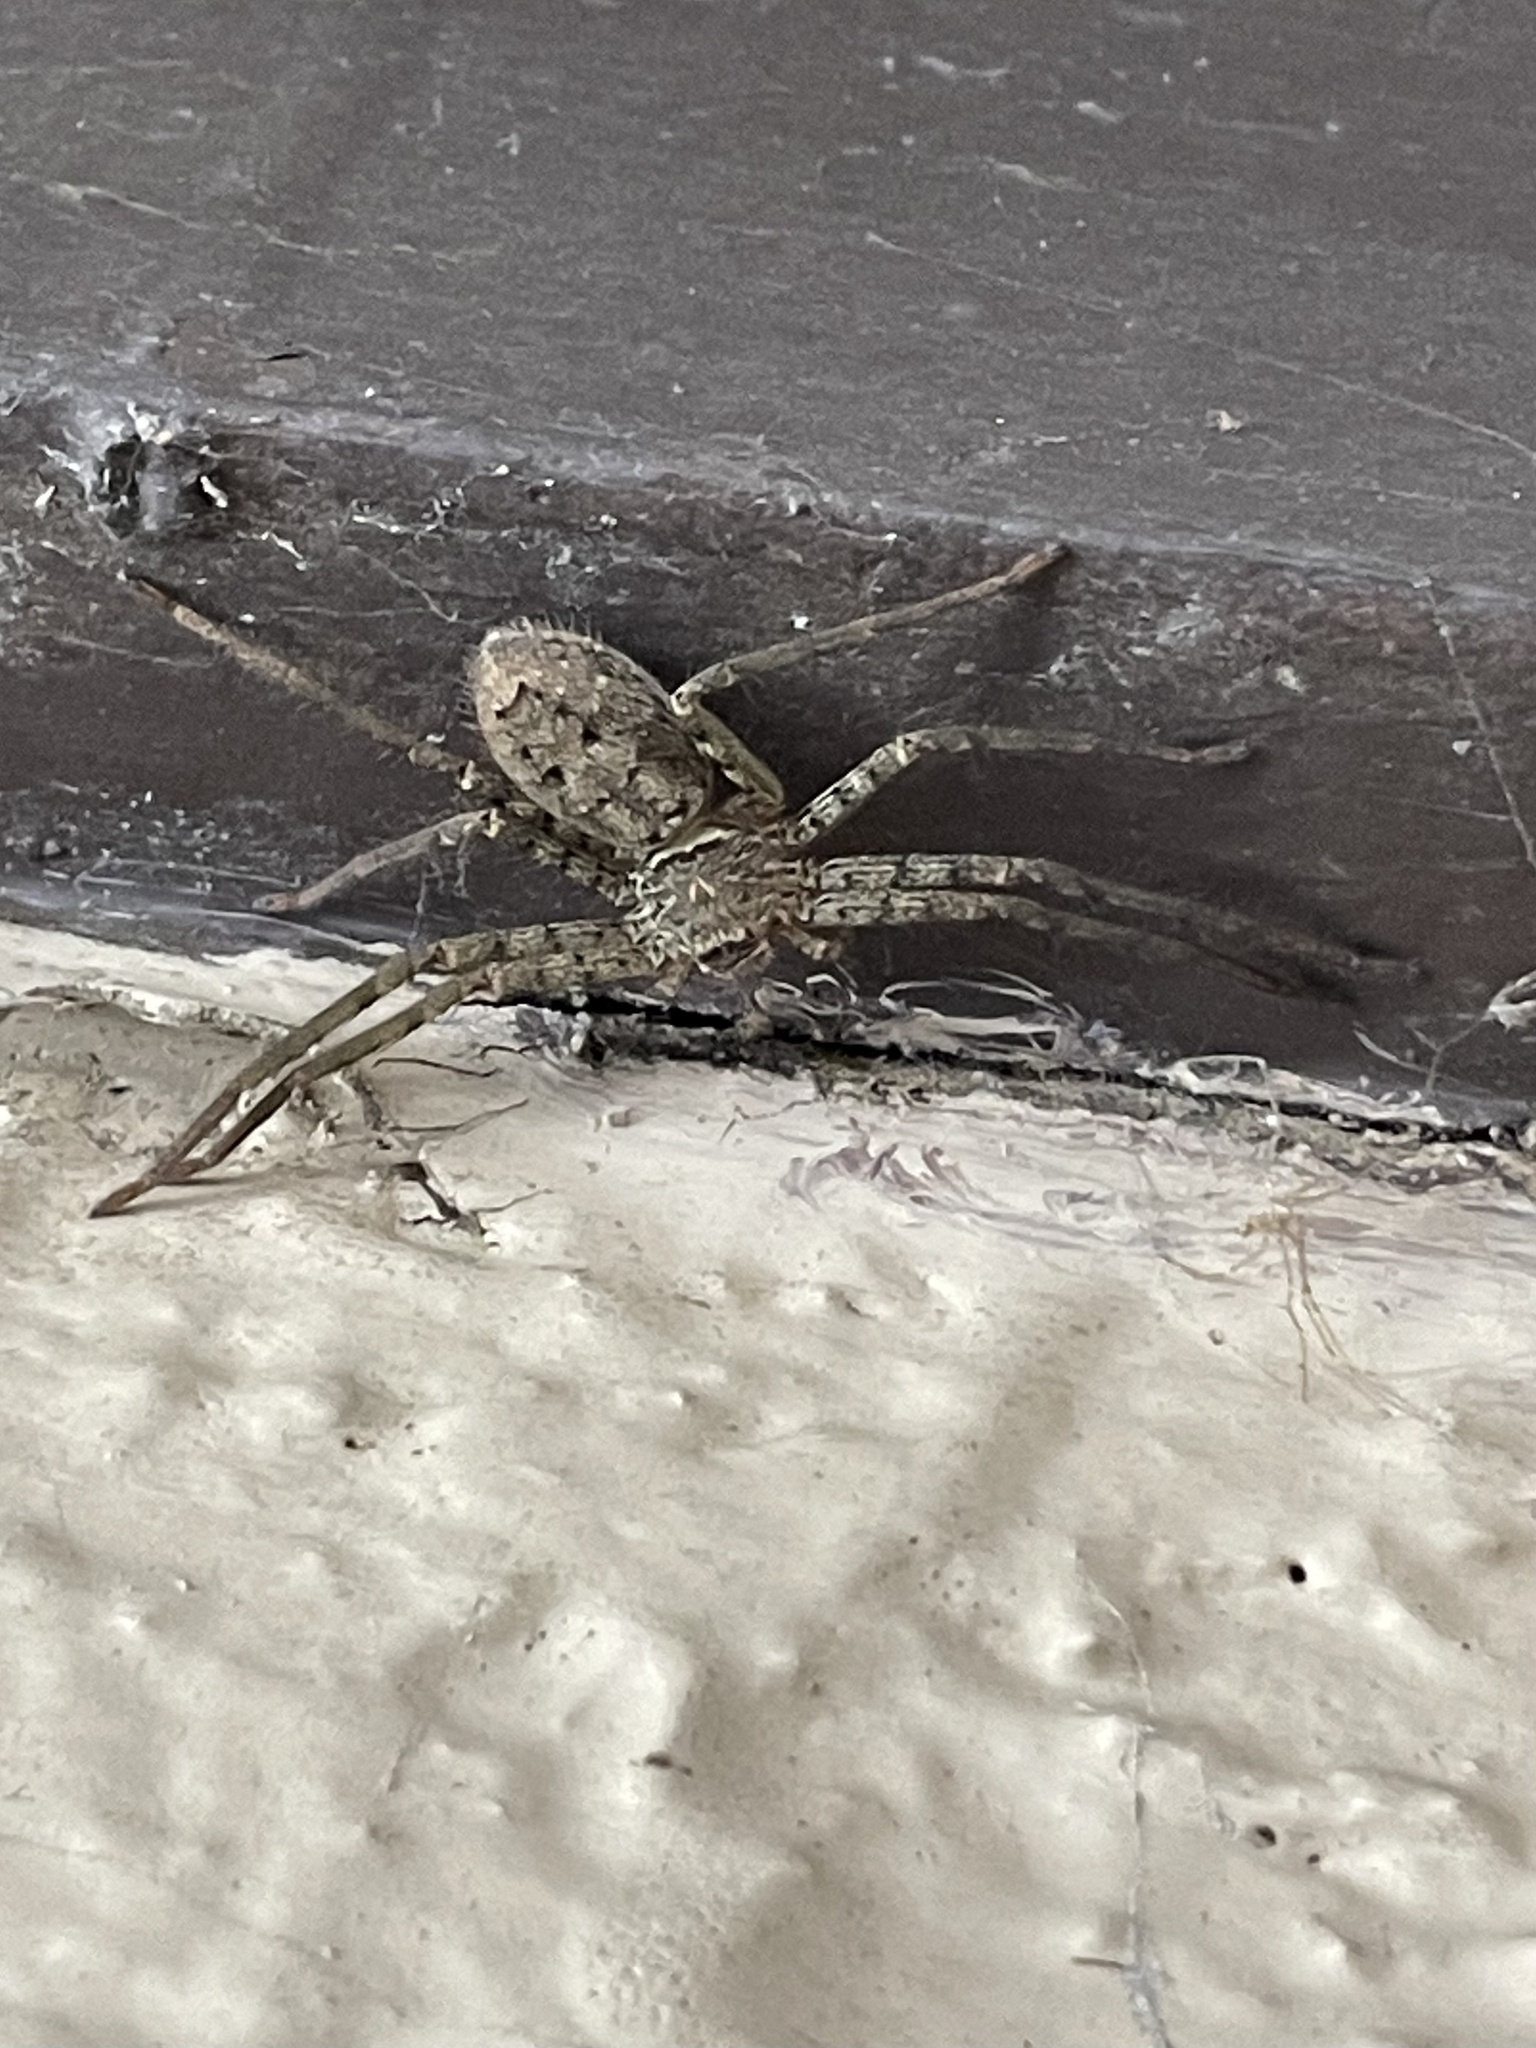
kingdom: Animalia
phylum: Arthropoda
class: Arachnida
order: Araneae
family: Sparassidae
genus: Heteropoda
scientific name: Heteropoda venatoria
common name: Huntsman spider
